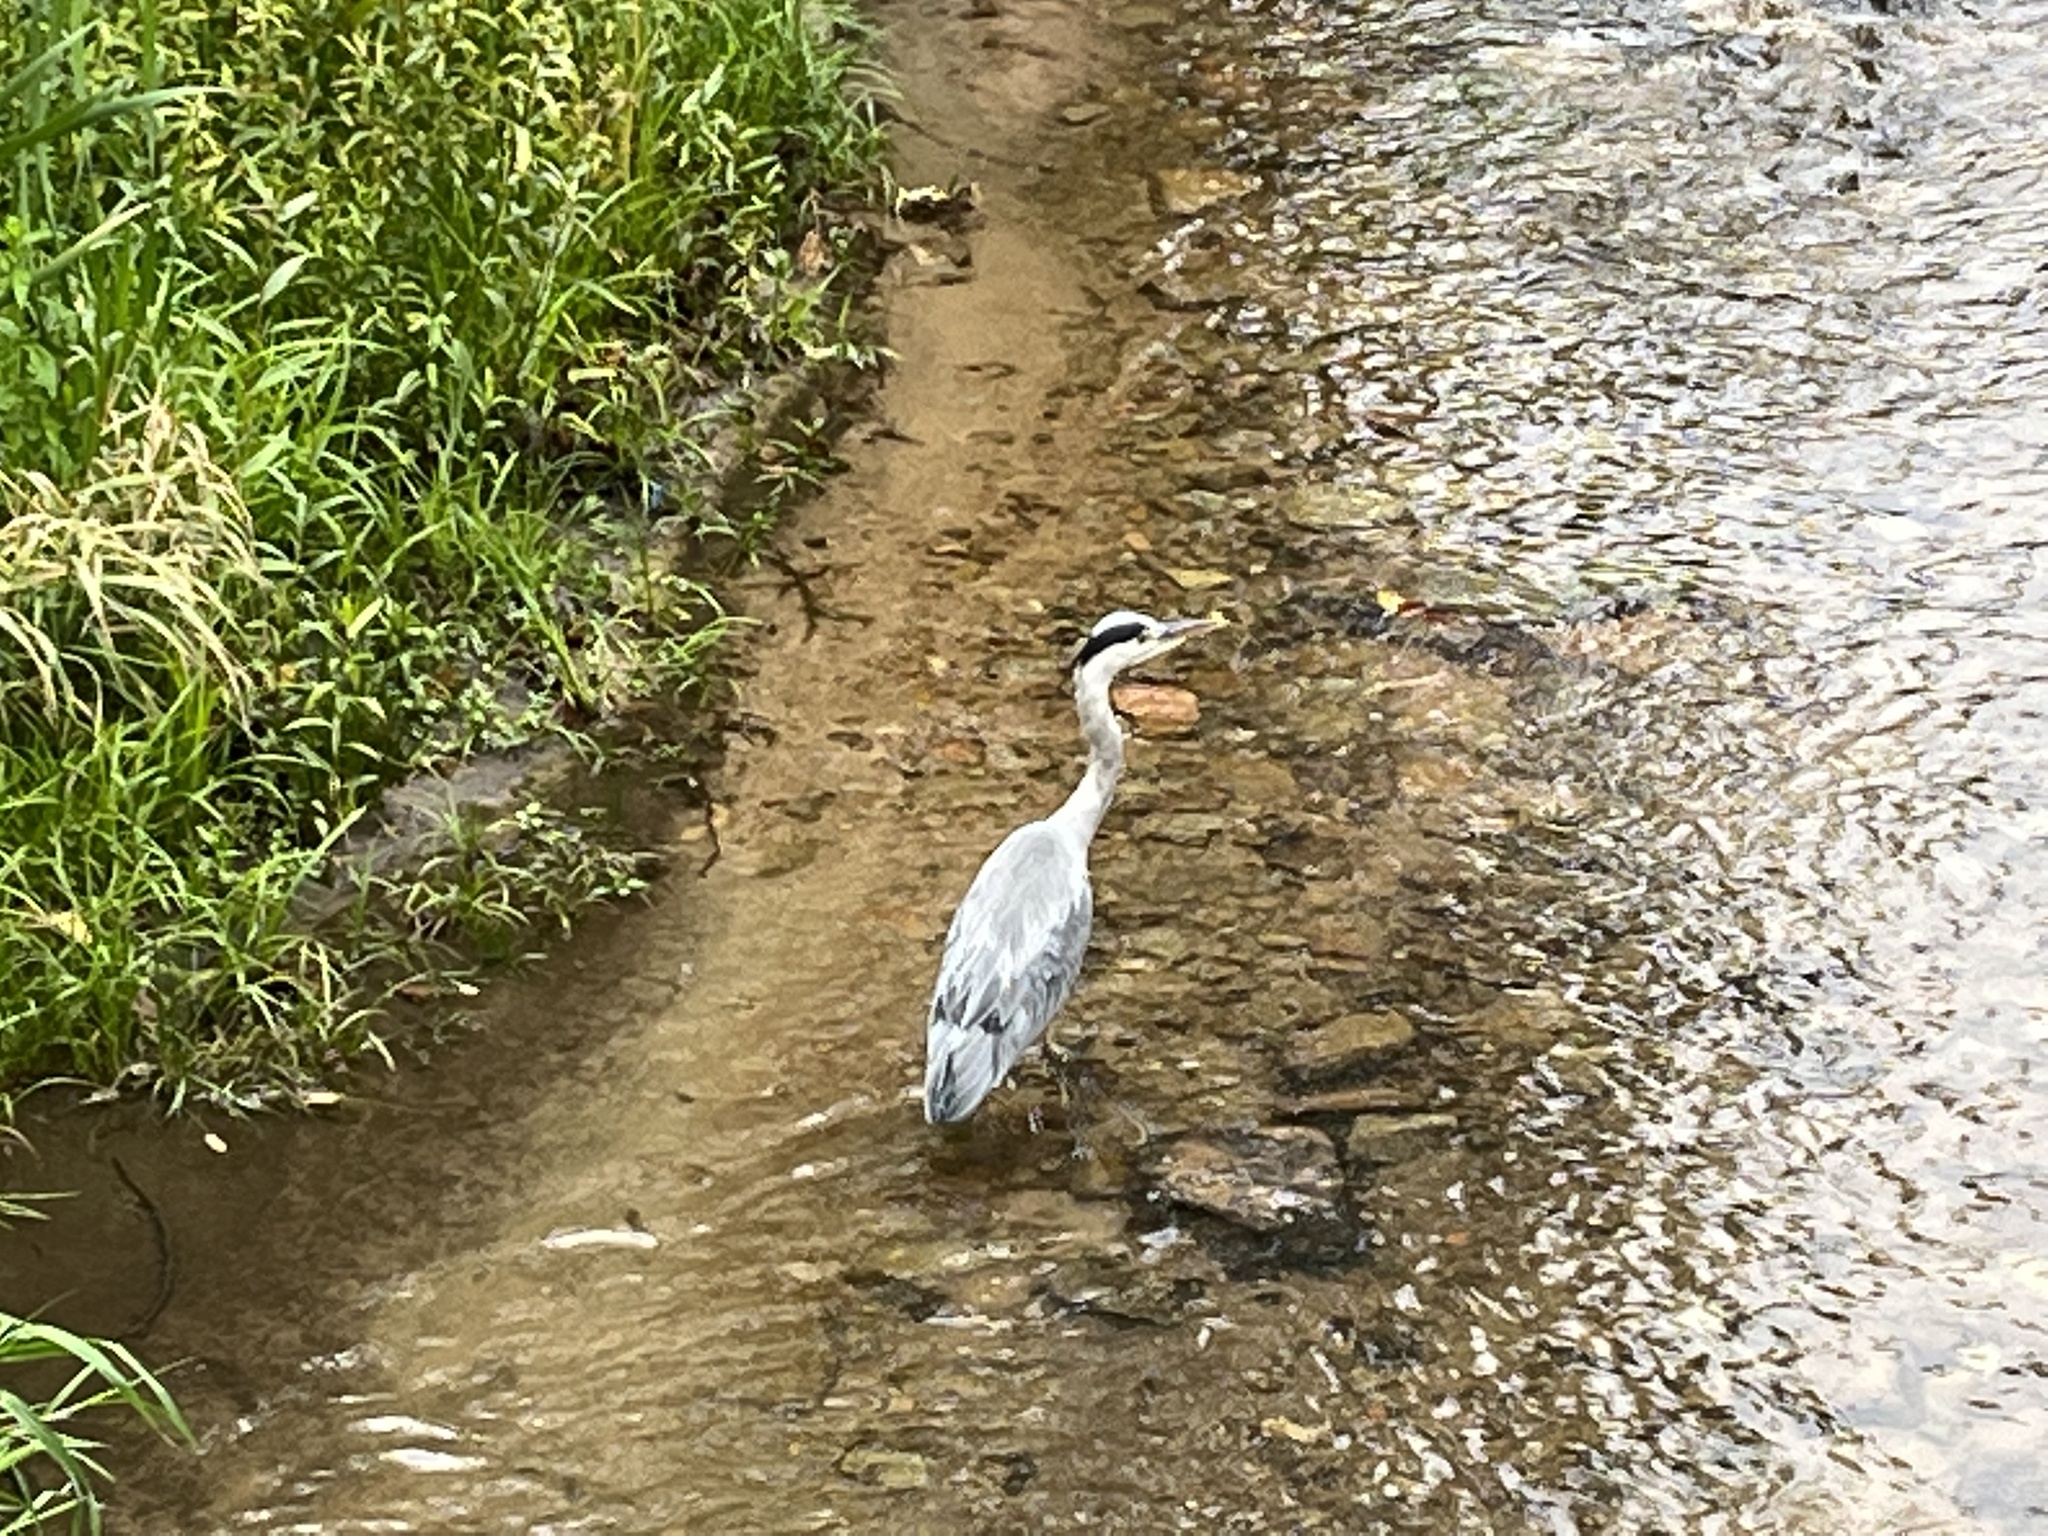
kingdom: Animalia
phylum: Chordata
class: Aves
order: Pelecaniformes
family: Ardeidae
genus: Ardea
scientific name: Ardea cinerea
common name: Grey heron
